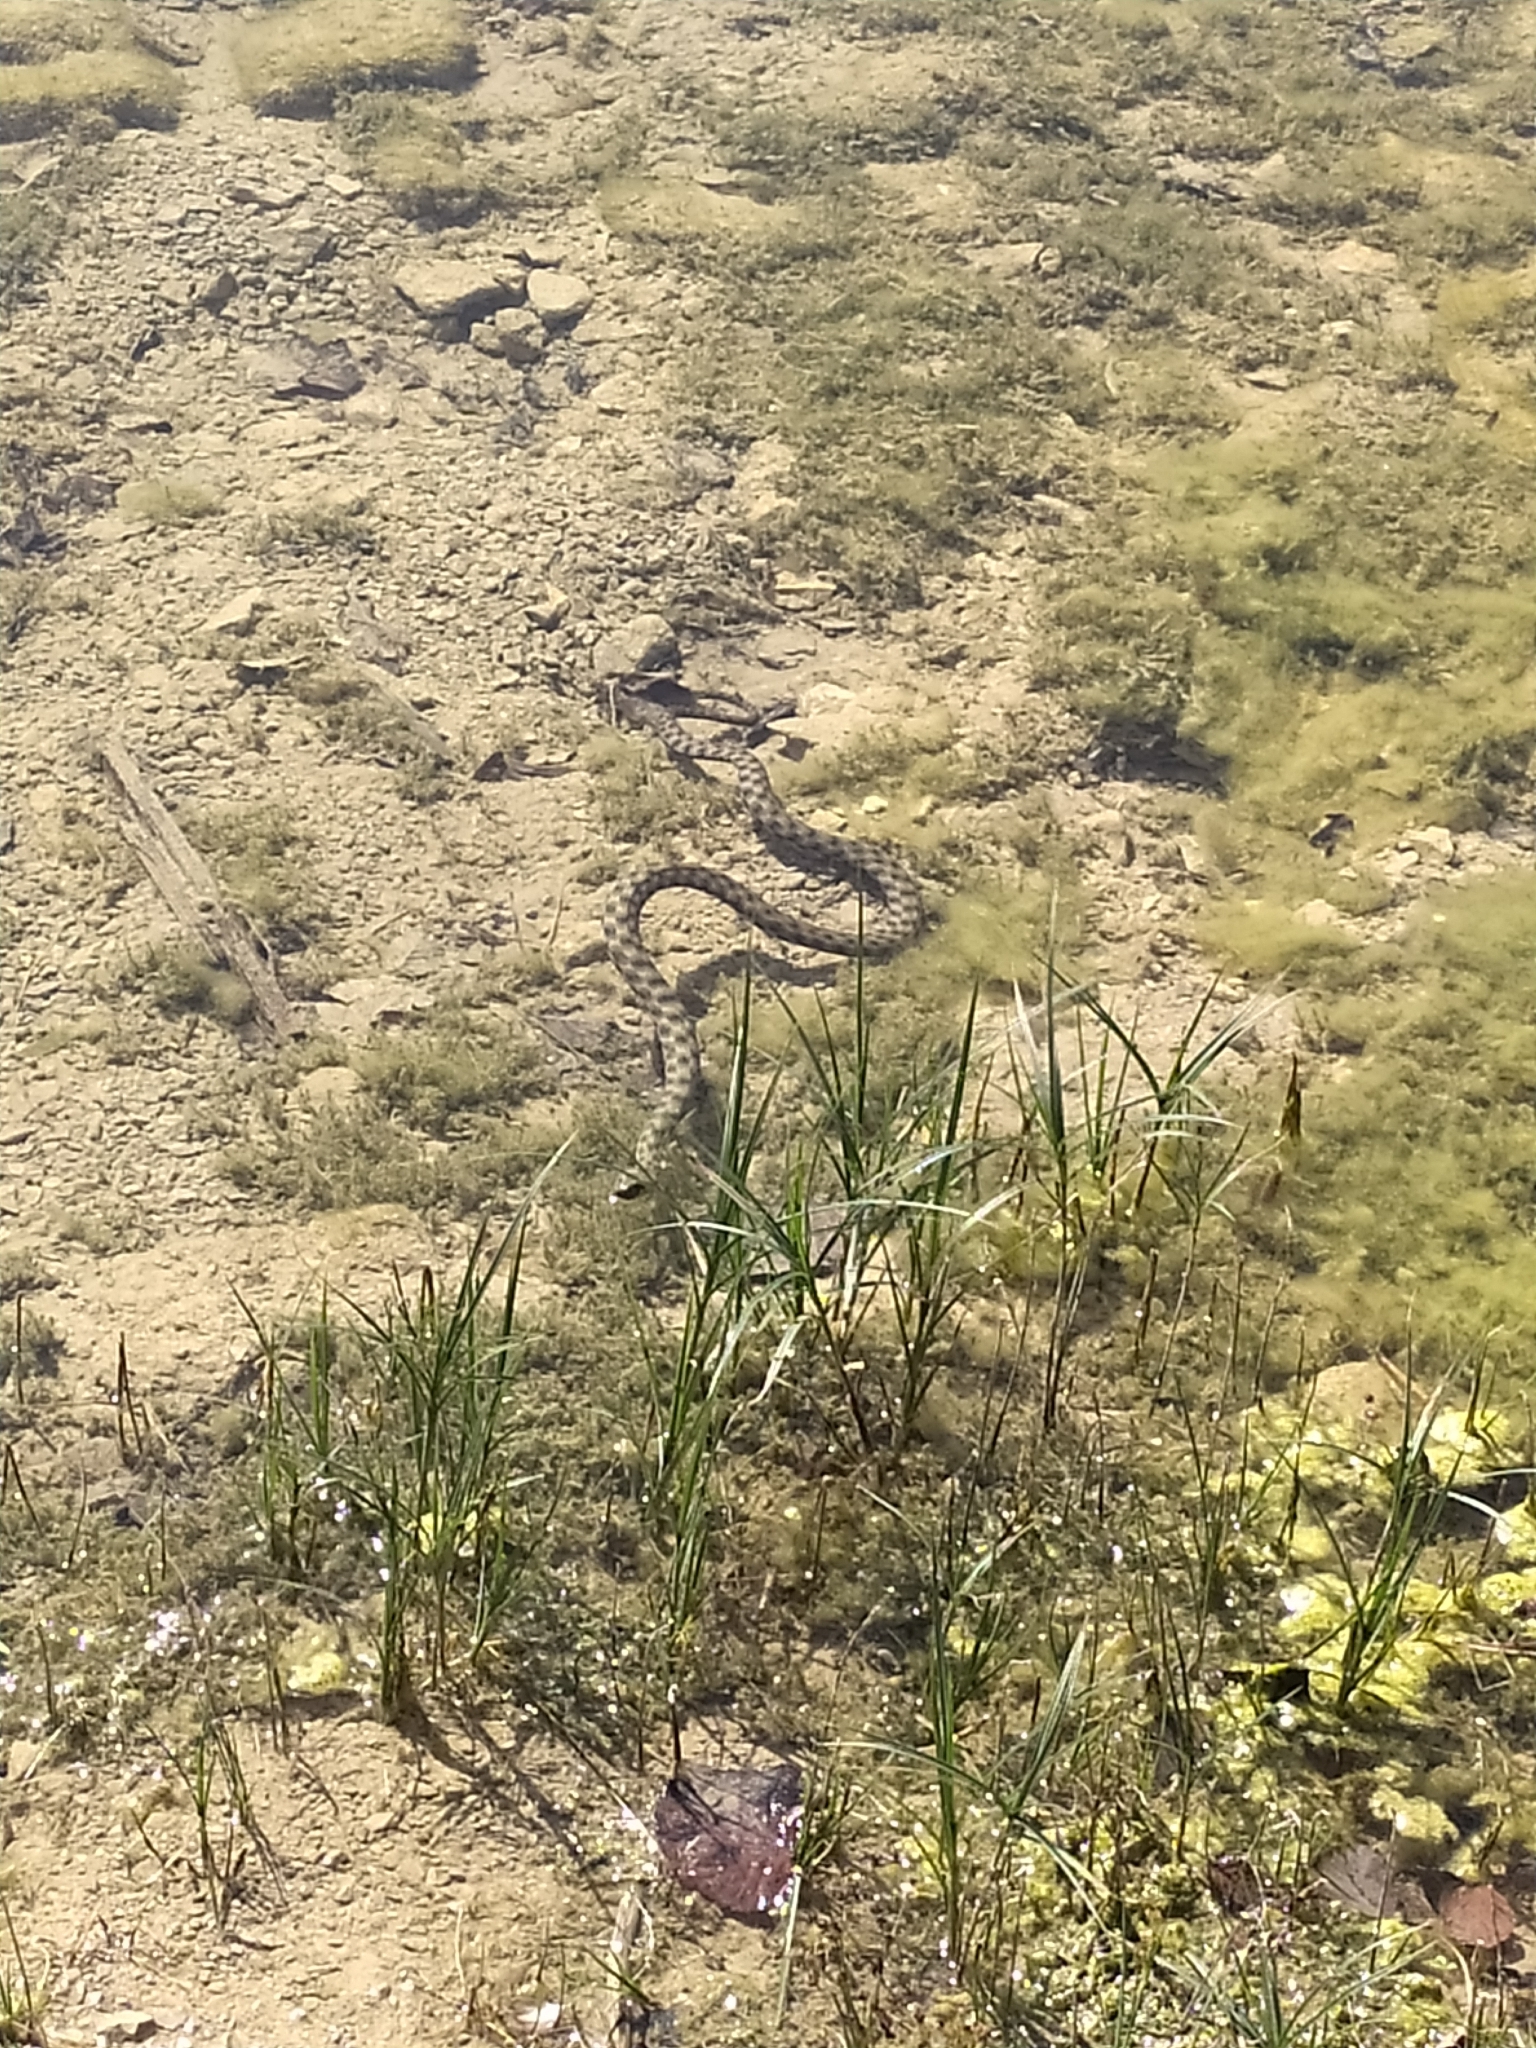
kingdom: Animalia
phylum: Chordata
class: Squamata
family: Colubridae
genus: Natrix
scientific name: Natrix tessellata
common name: Dice snake
